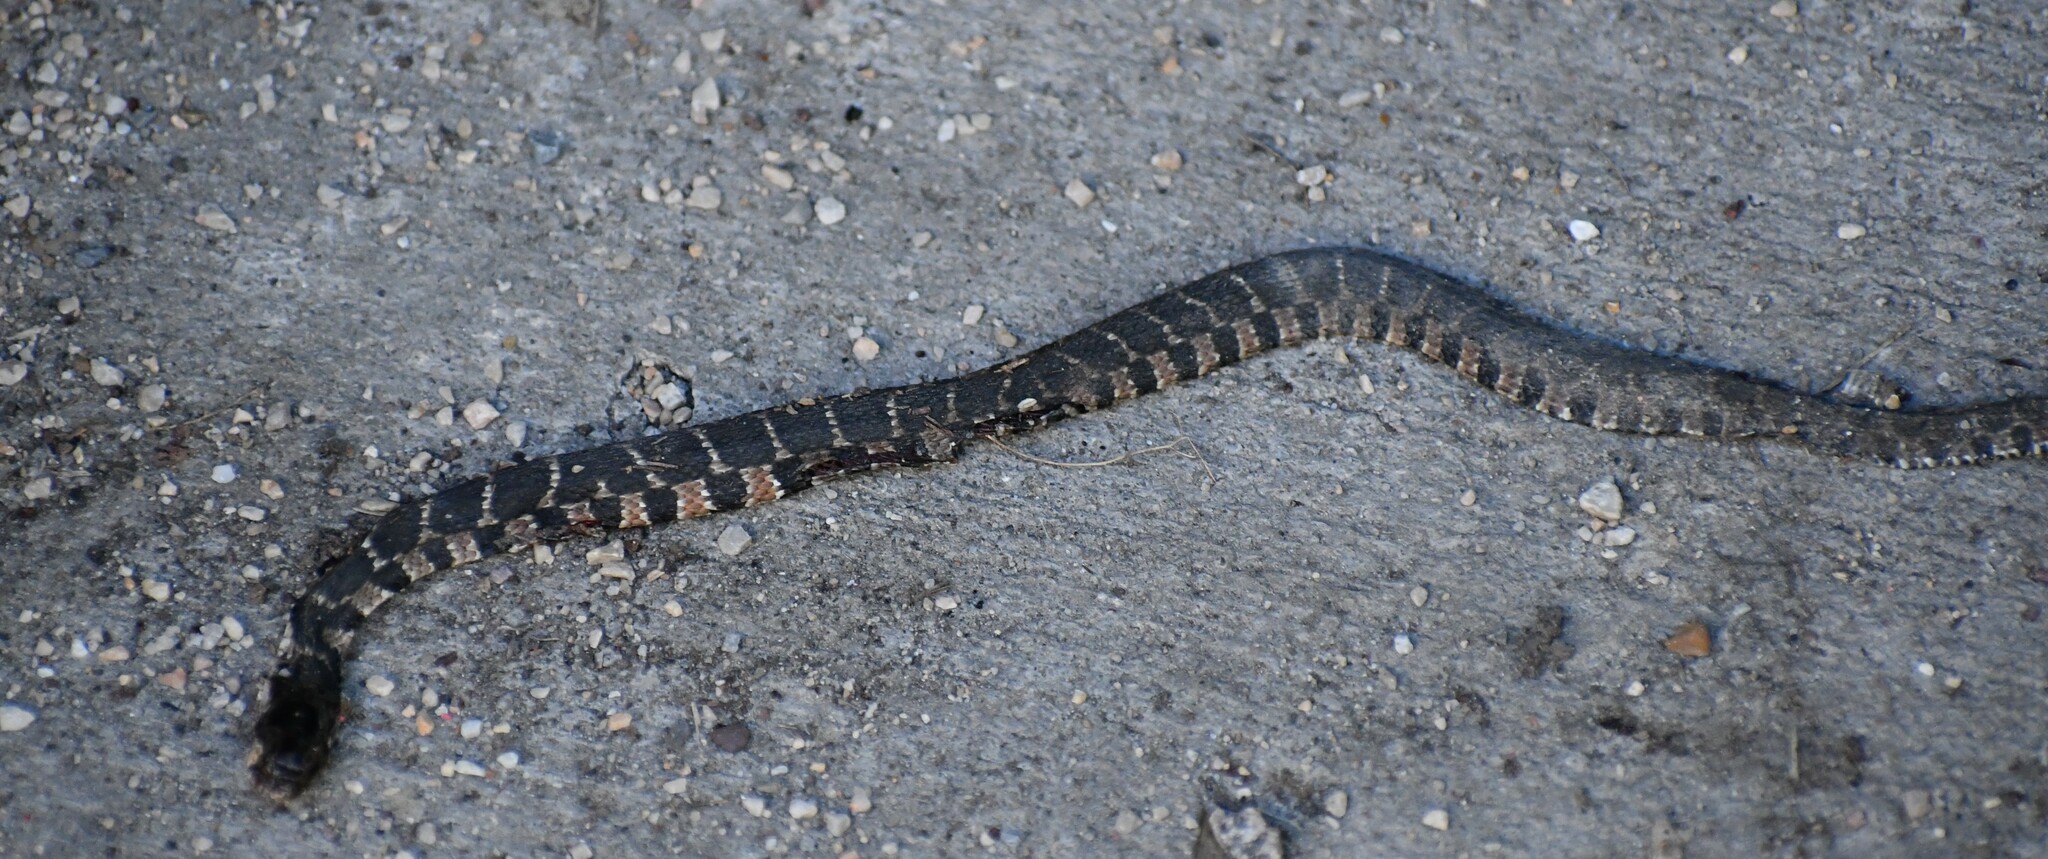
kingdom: Animalia
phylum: Chordata
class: Squamata
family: Colubridae
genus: Nerodia
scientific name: Nerodia erythrogaster
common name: Plainbelly water snake
